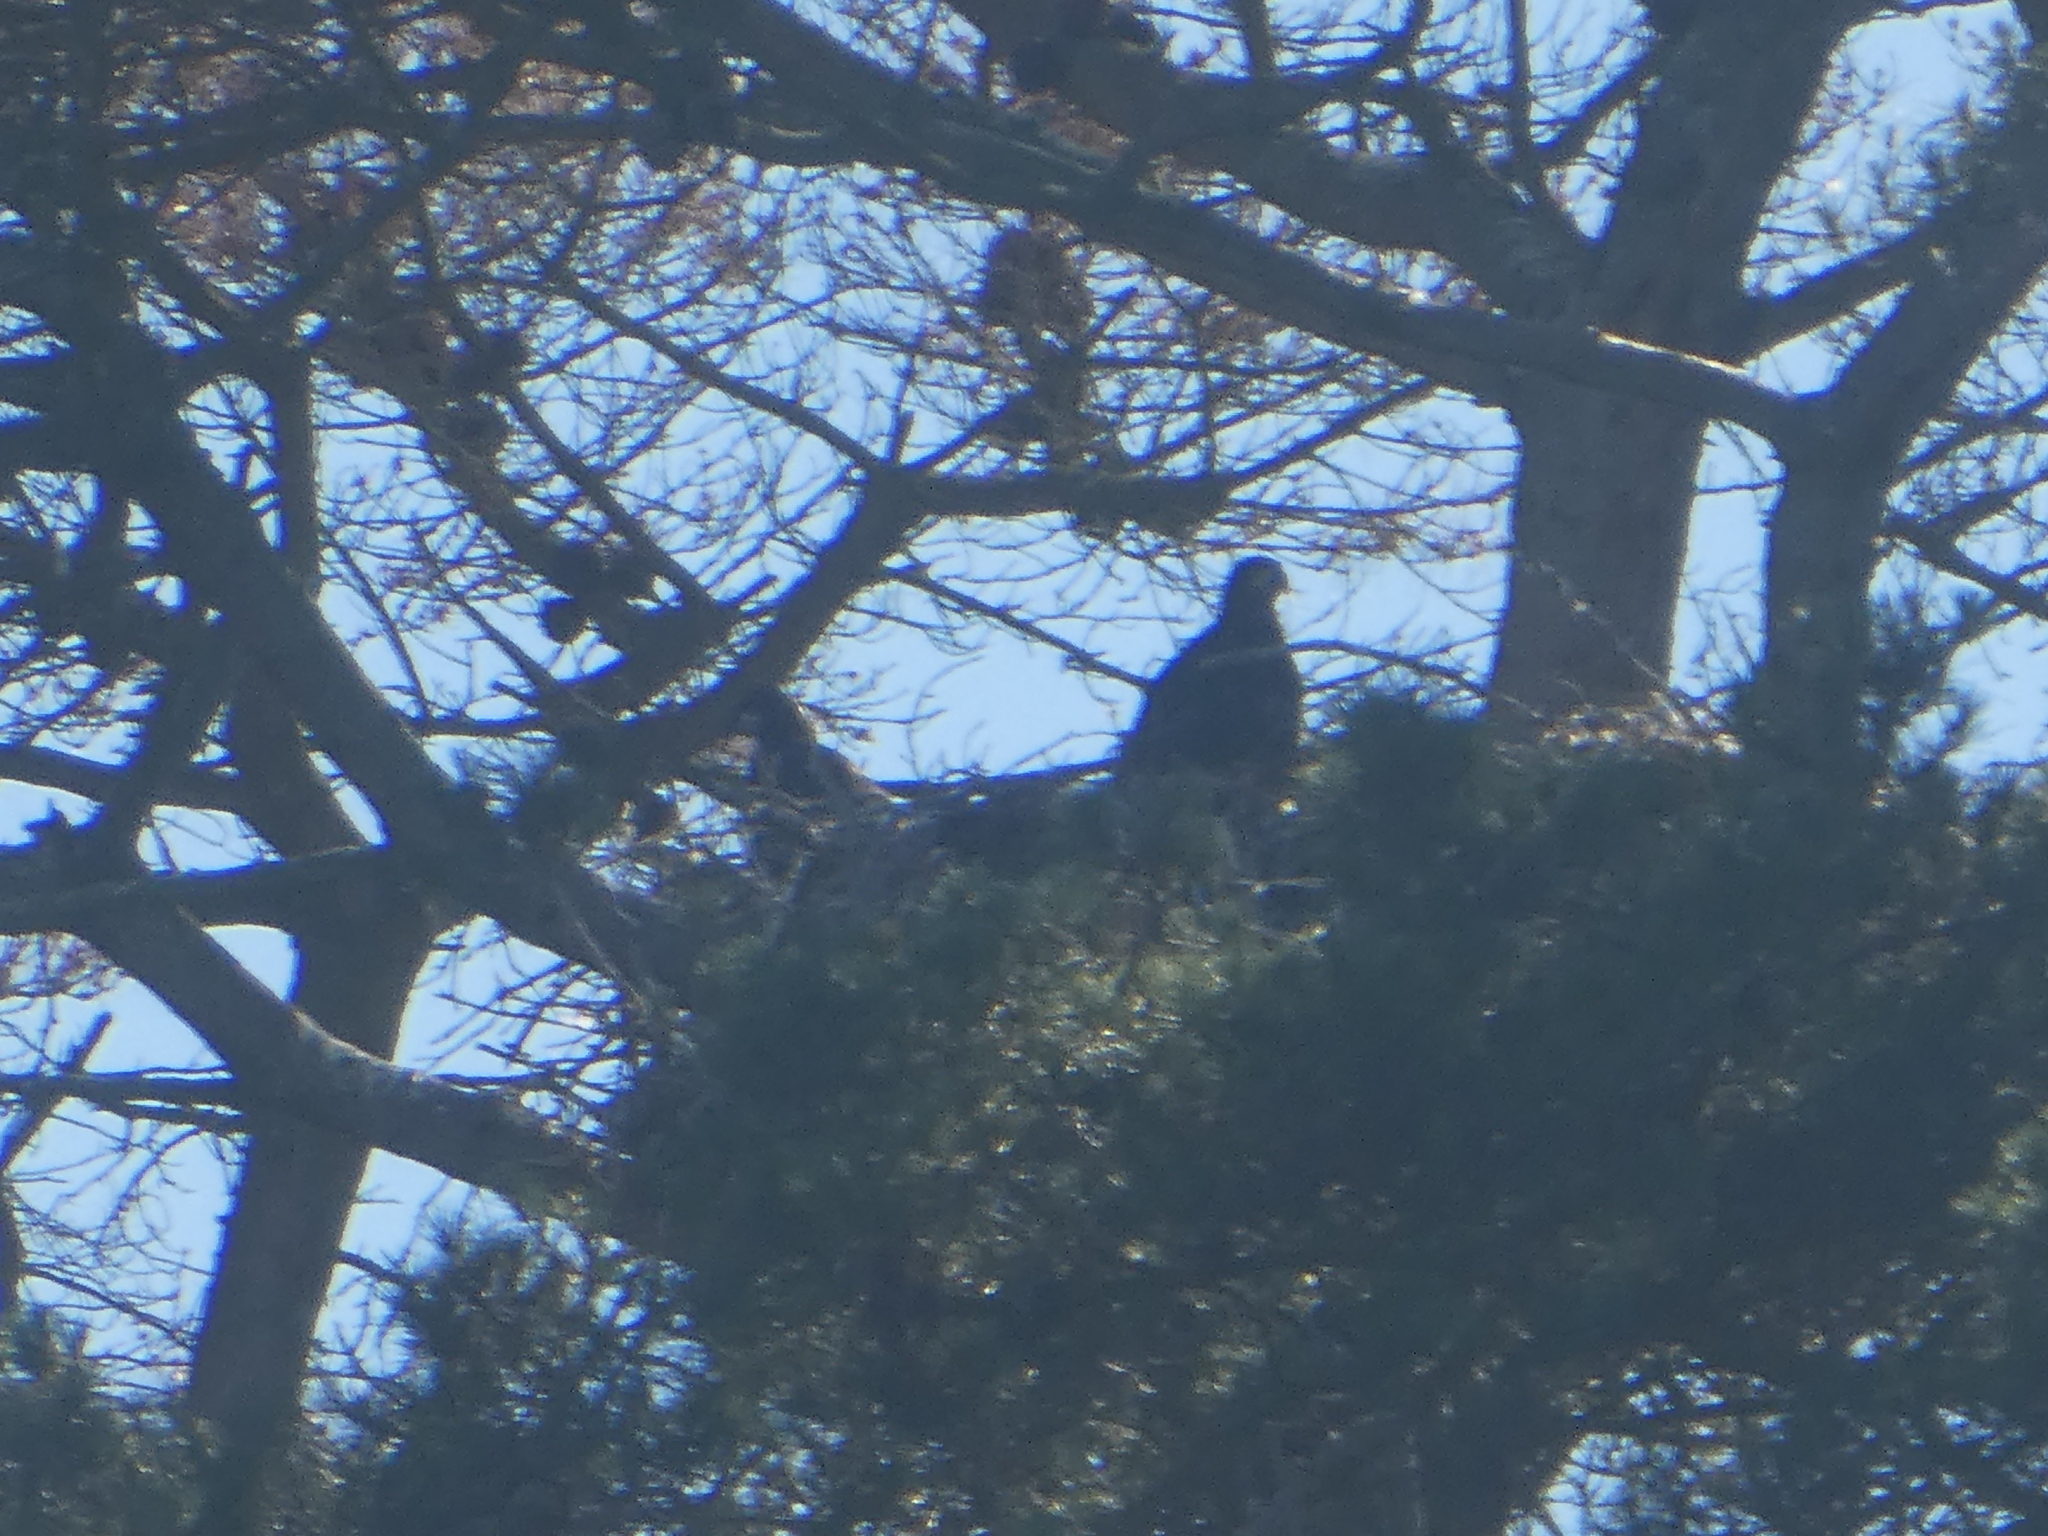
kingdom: Animalia
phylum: Chordata
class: Aves
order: Accipitriformes
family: Accipitridae
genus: Haliaeetus
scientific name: Haliaeetus leucocephalus
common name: Bald eagle
